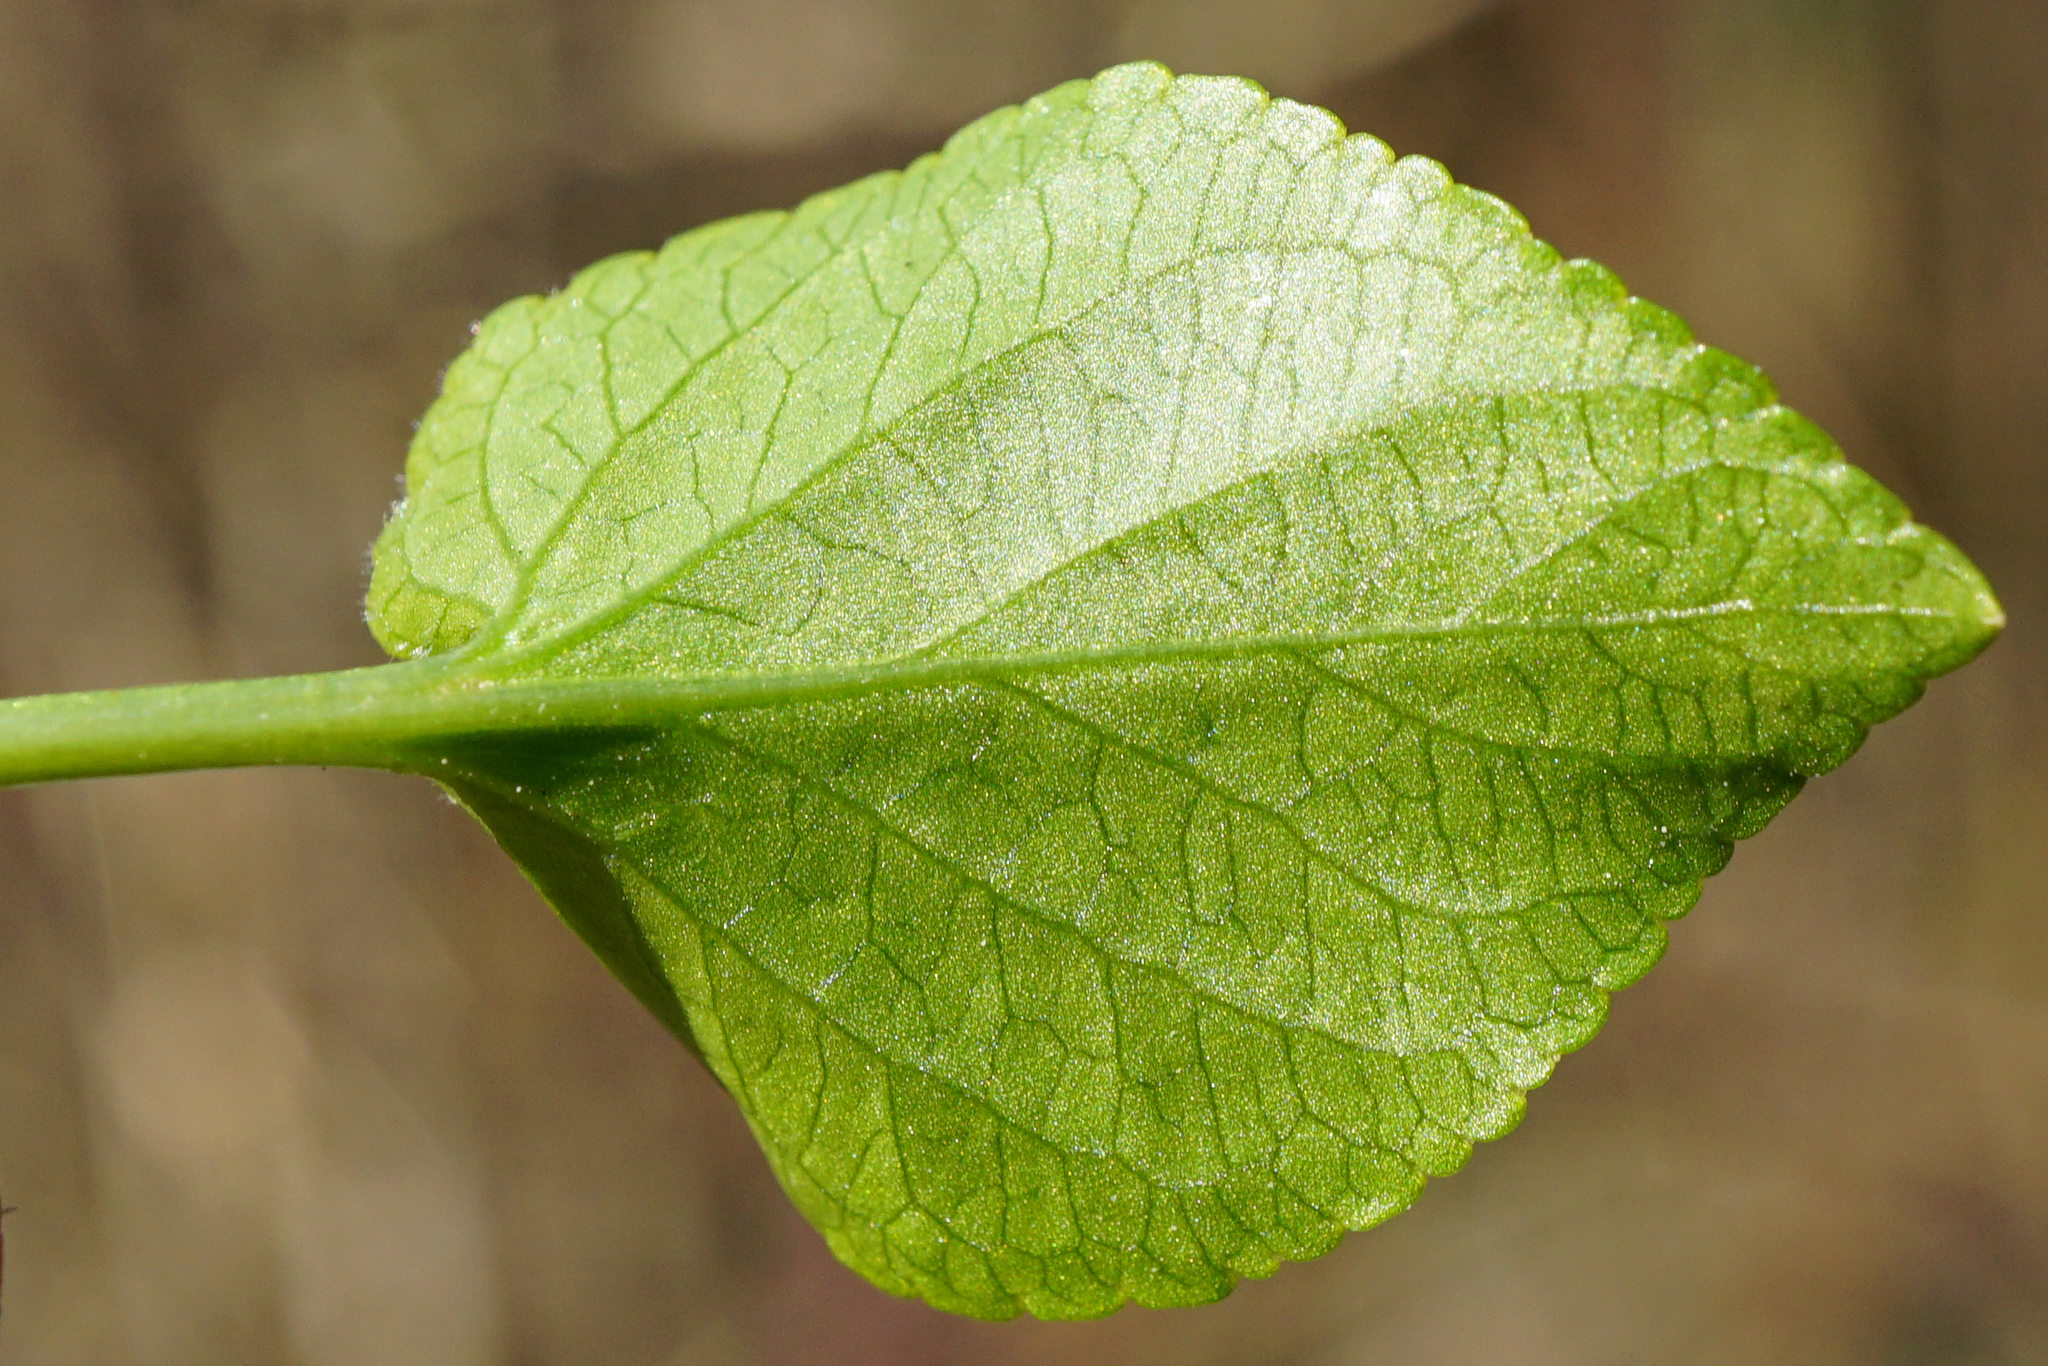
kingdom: Plantae
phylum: Tracheophyta
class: Magnoliopsida
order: Malpighiales
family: Violaceae
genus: Viola
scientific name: Viola suavis
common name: Russian violet
